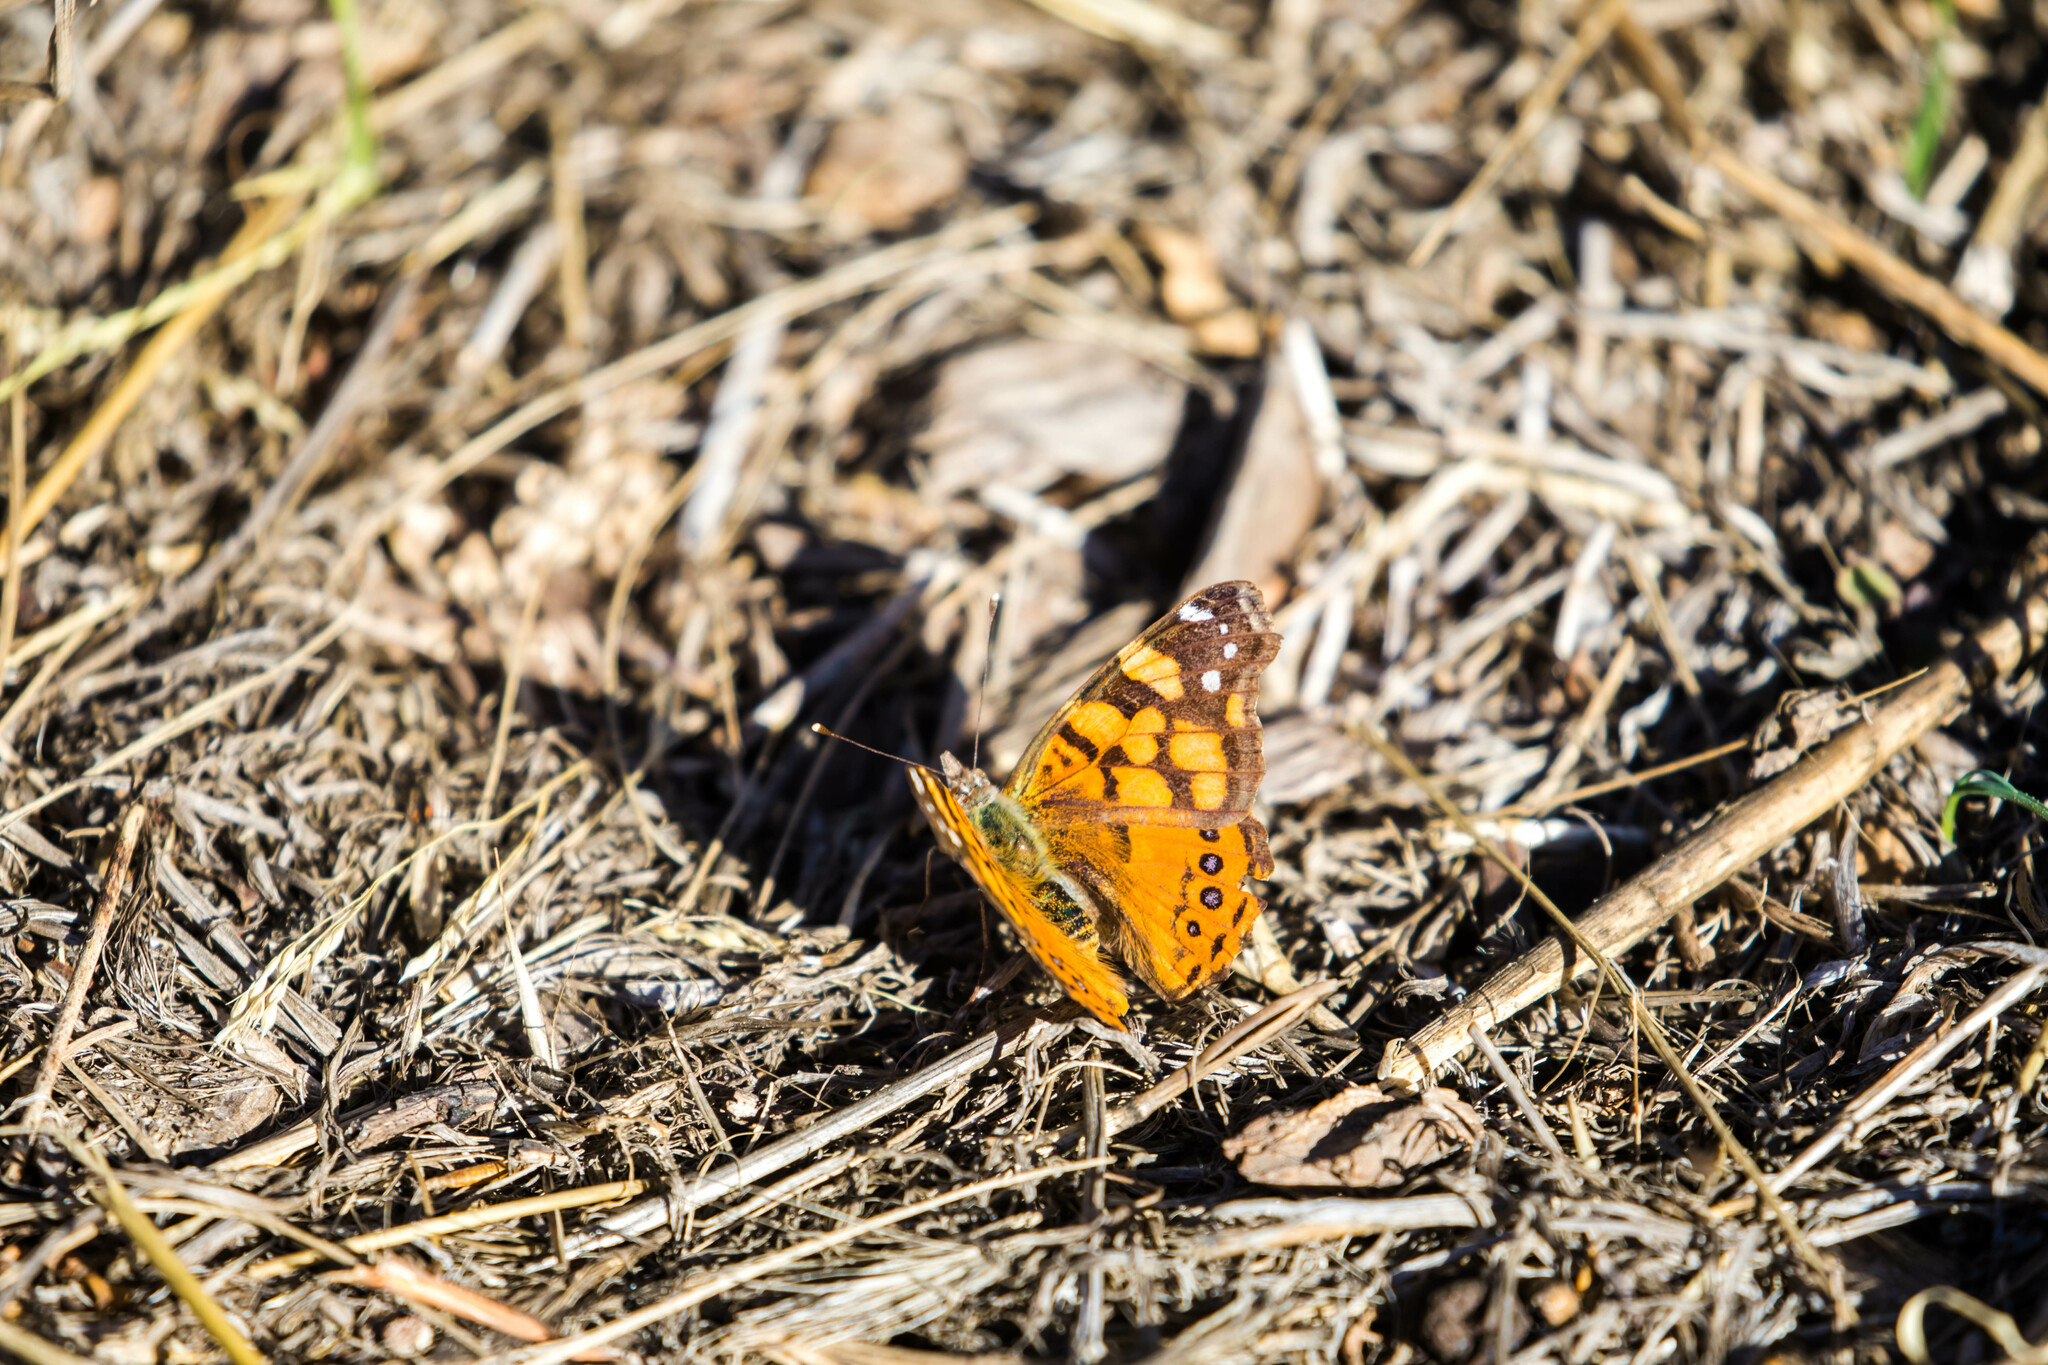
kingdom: Animalia
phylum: Arthropoda
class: Insecta
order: Lepidoptera
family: Nymphalidae
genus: Vanessa
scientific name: Vanessa annabella
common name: West coast lady
